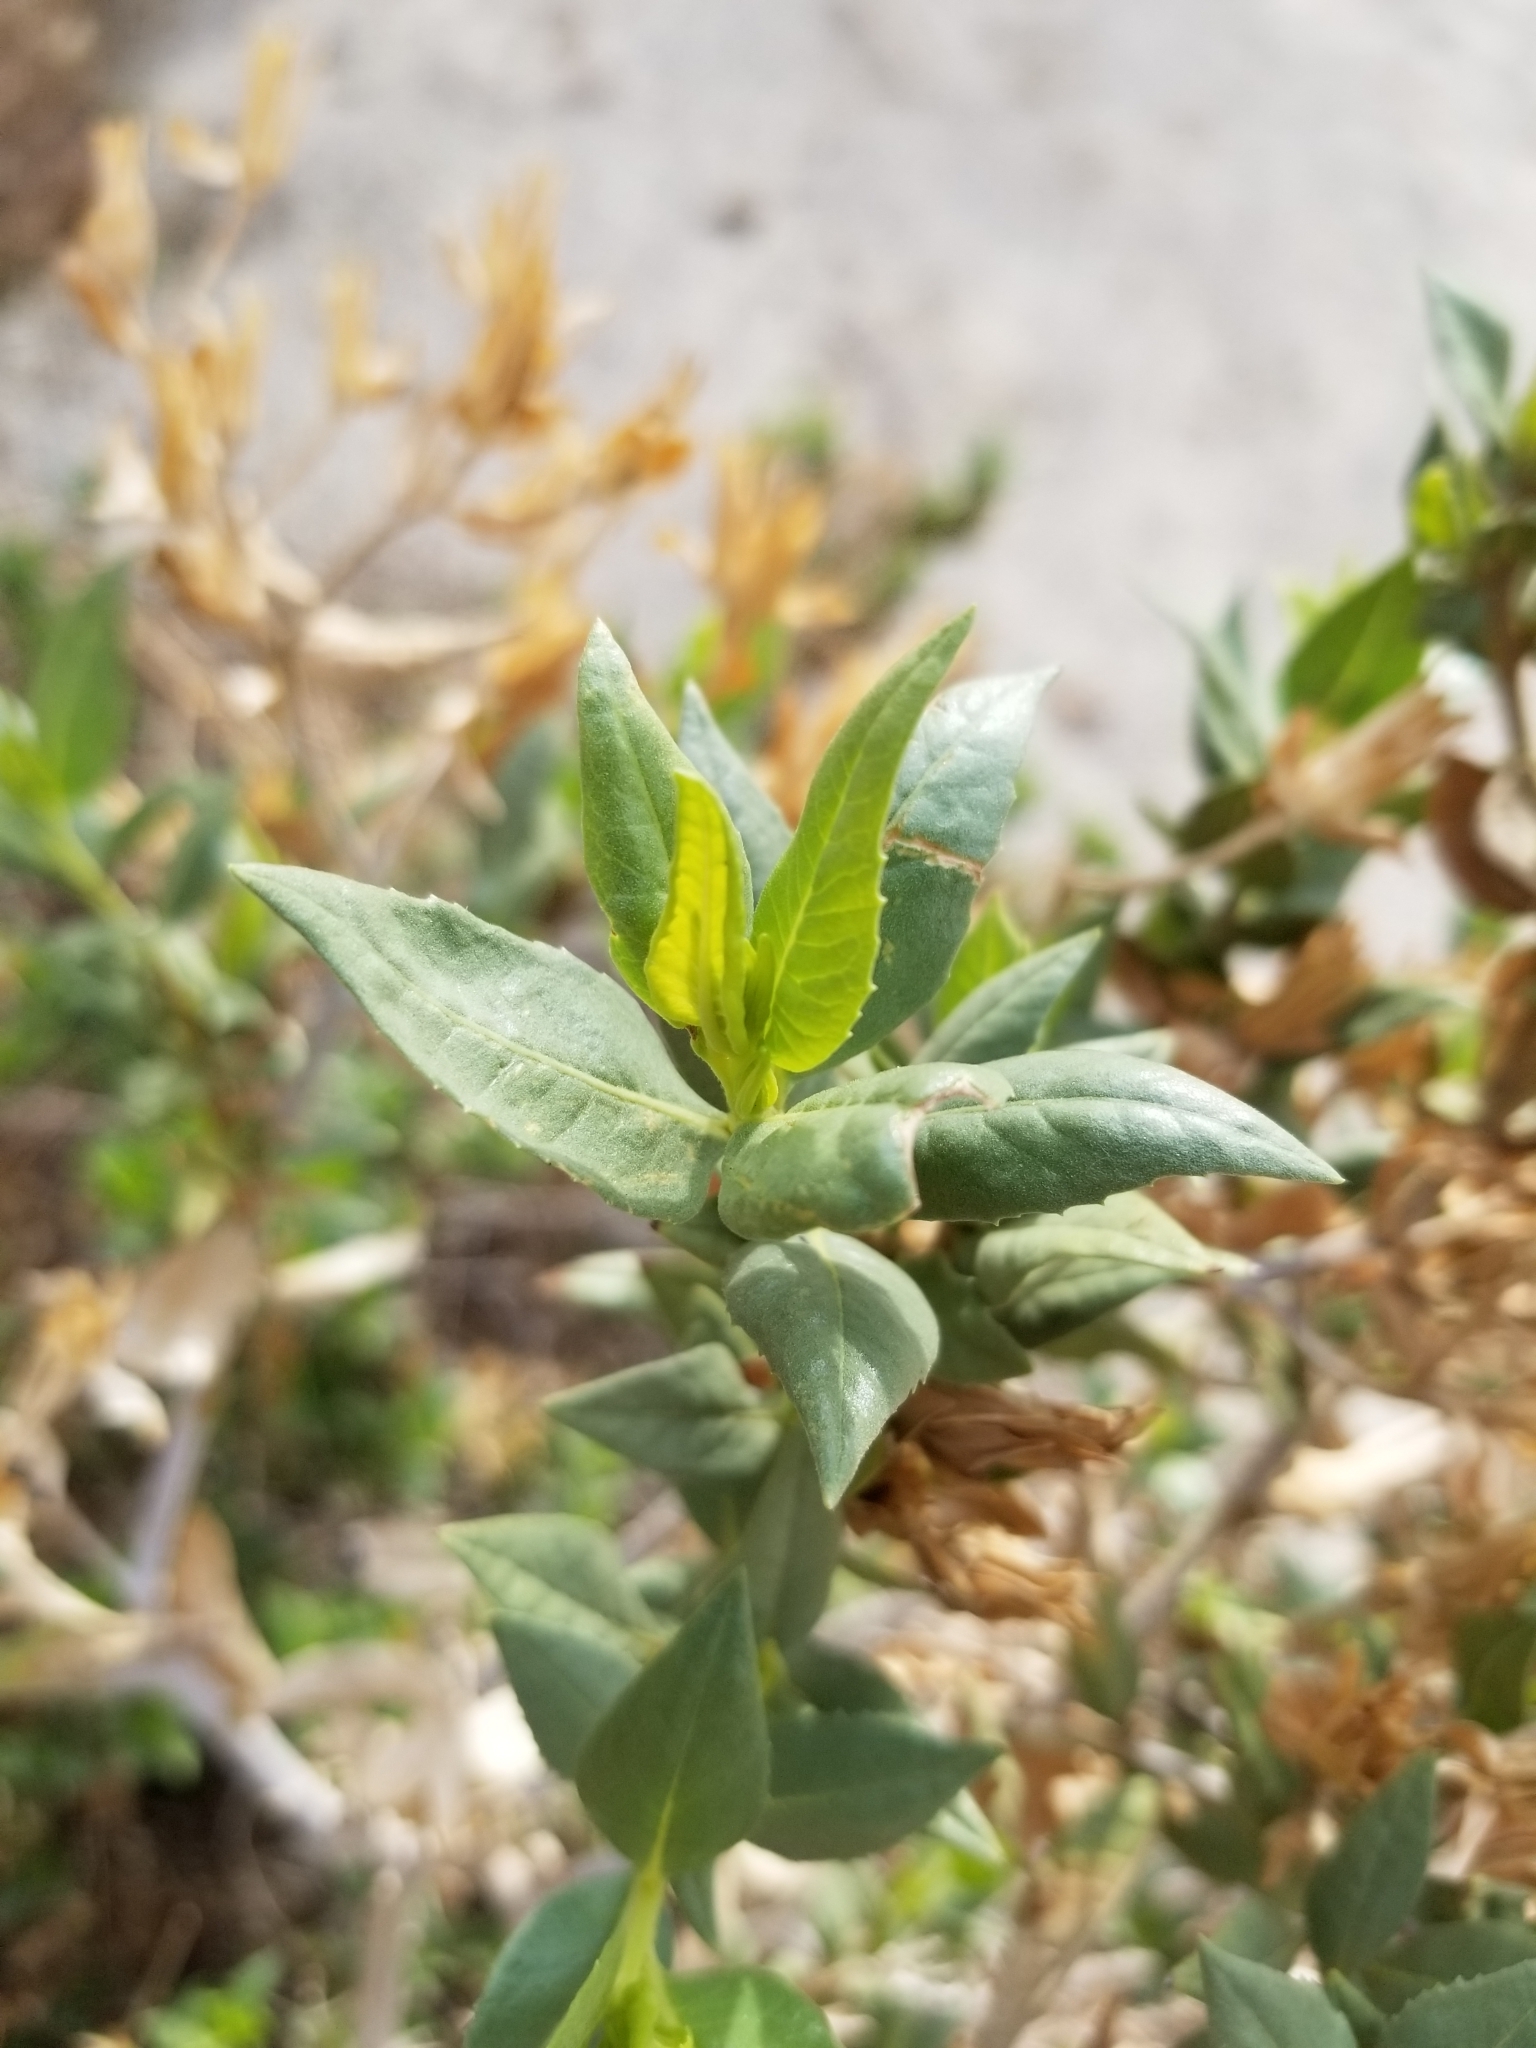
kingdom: Plantae
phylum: Tracheophyta
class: Magnoliopsida
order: Asterales
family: Asteraceae
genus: Trixis
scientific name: Trixis californica
